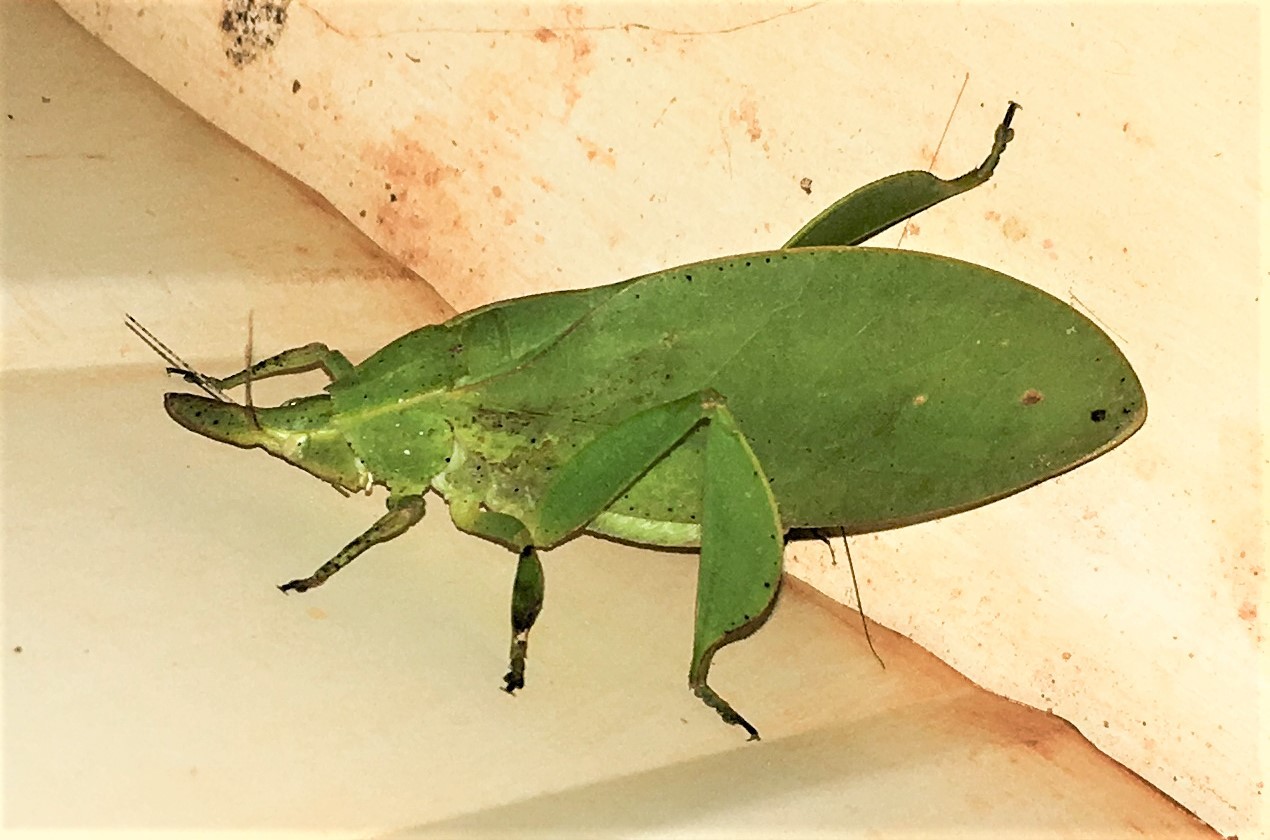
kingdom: Animalia
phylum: Arthropoda
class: Insecta
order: Orthoptera
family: Tettigoniidae
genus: Aegimia
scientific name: Aegimia catharinensis
